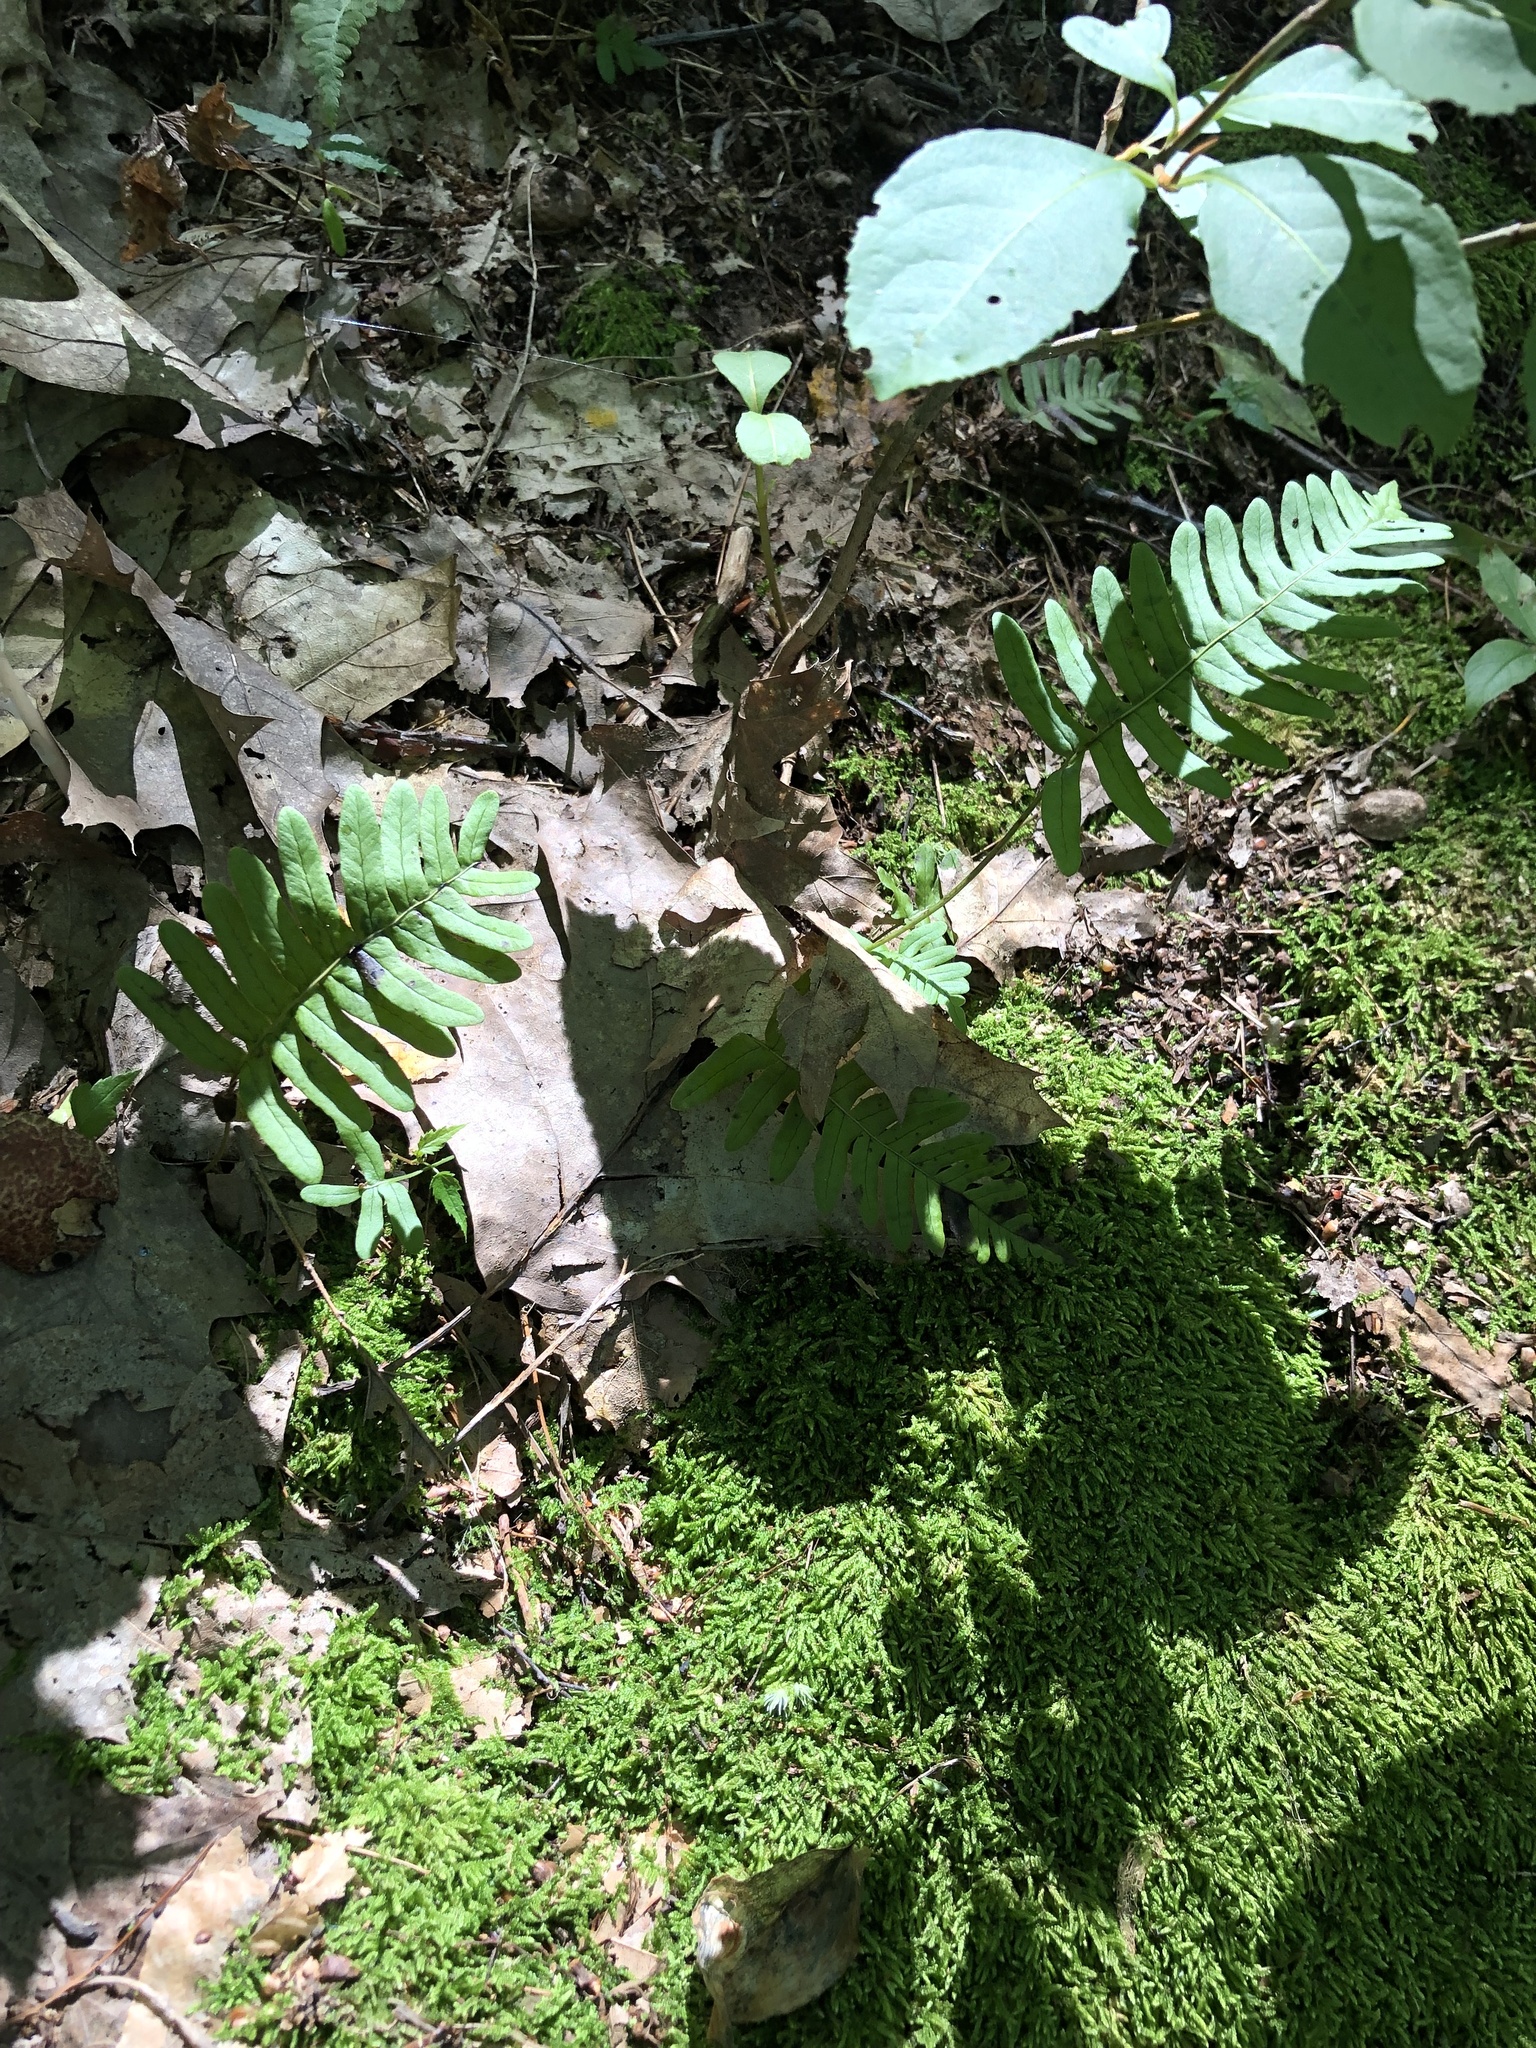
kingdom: Plantae
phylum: Tracheophyta
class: Polypodiopsida
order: Polypodiales
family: Polypodiaceae
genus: Polypodium
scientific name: Polypodium virginianum
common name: American wall fern
